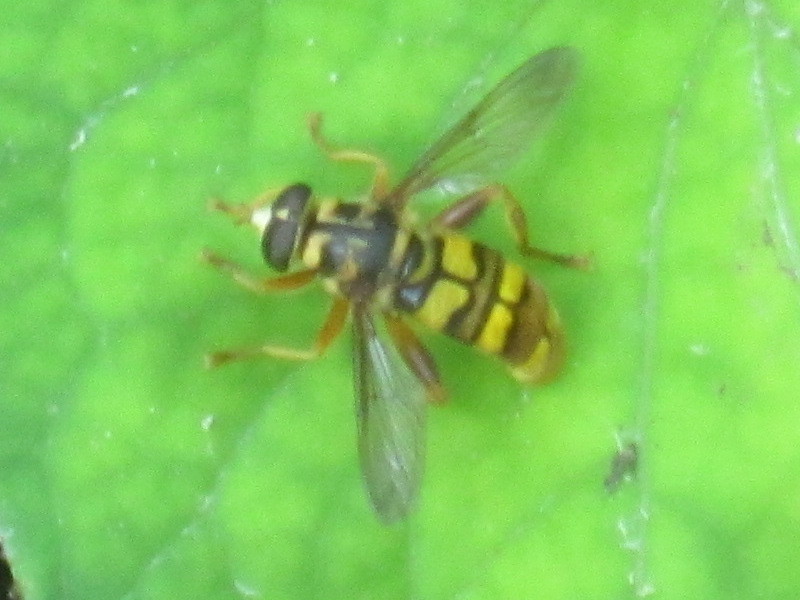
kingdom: Animalia
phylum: Arthropoda
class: Insecta
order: Diptera
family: Syrphidae
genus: Milesia
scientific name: Milesia virginiensis
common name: Virginia giant
